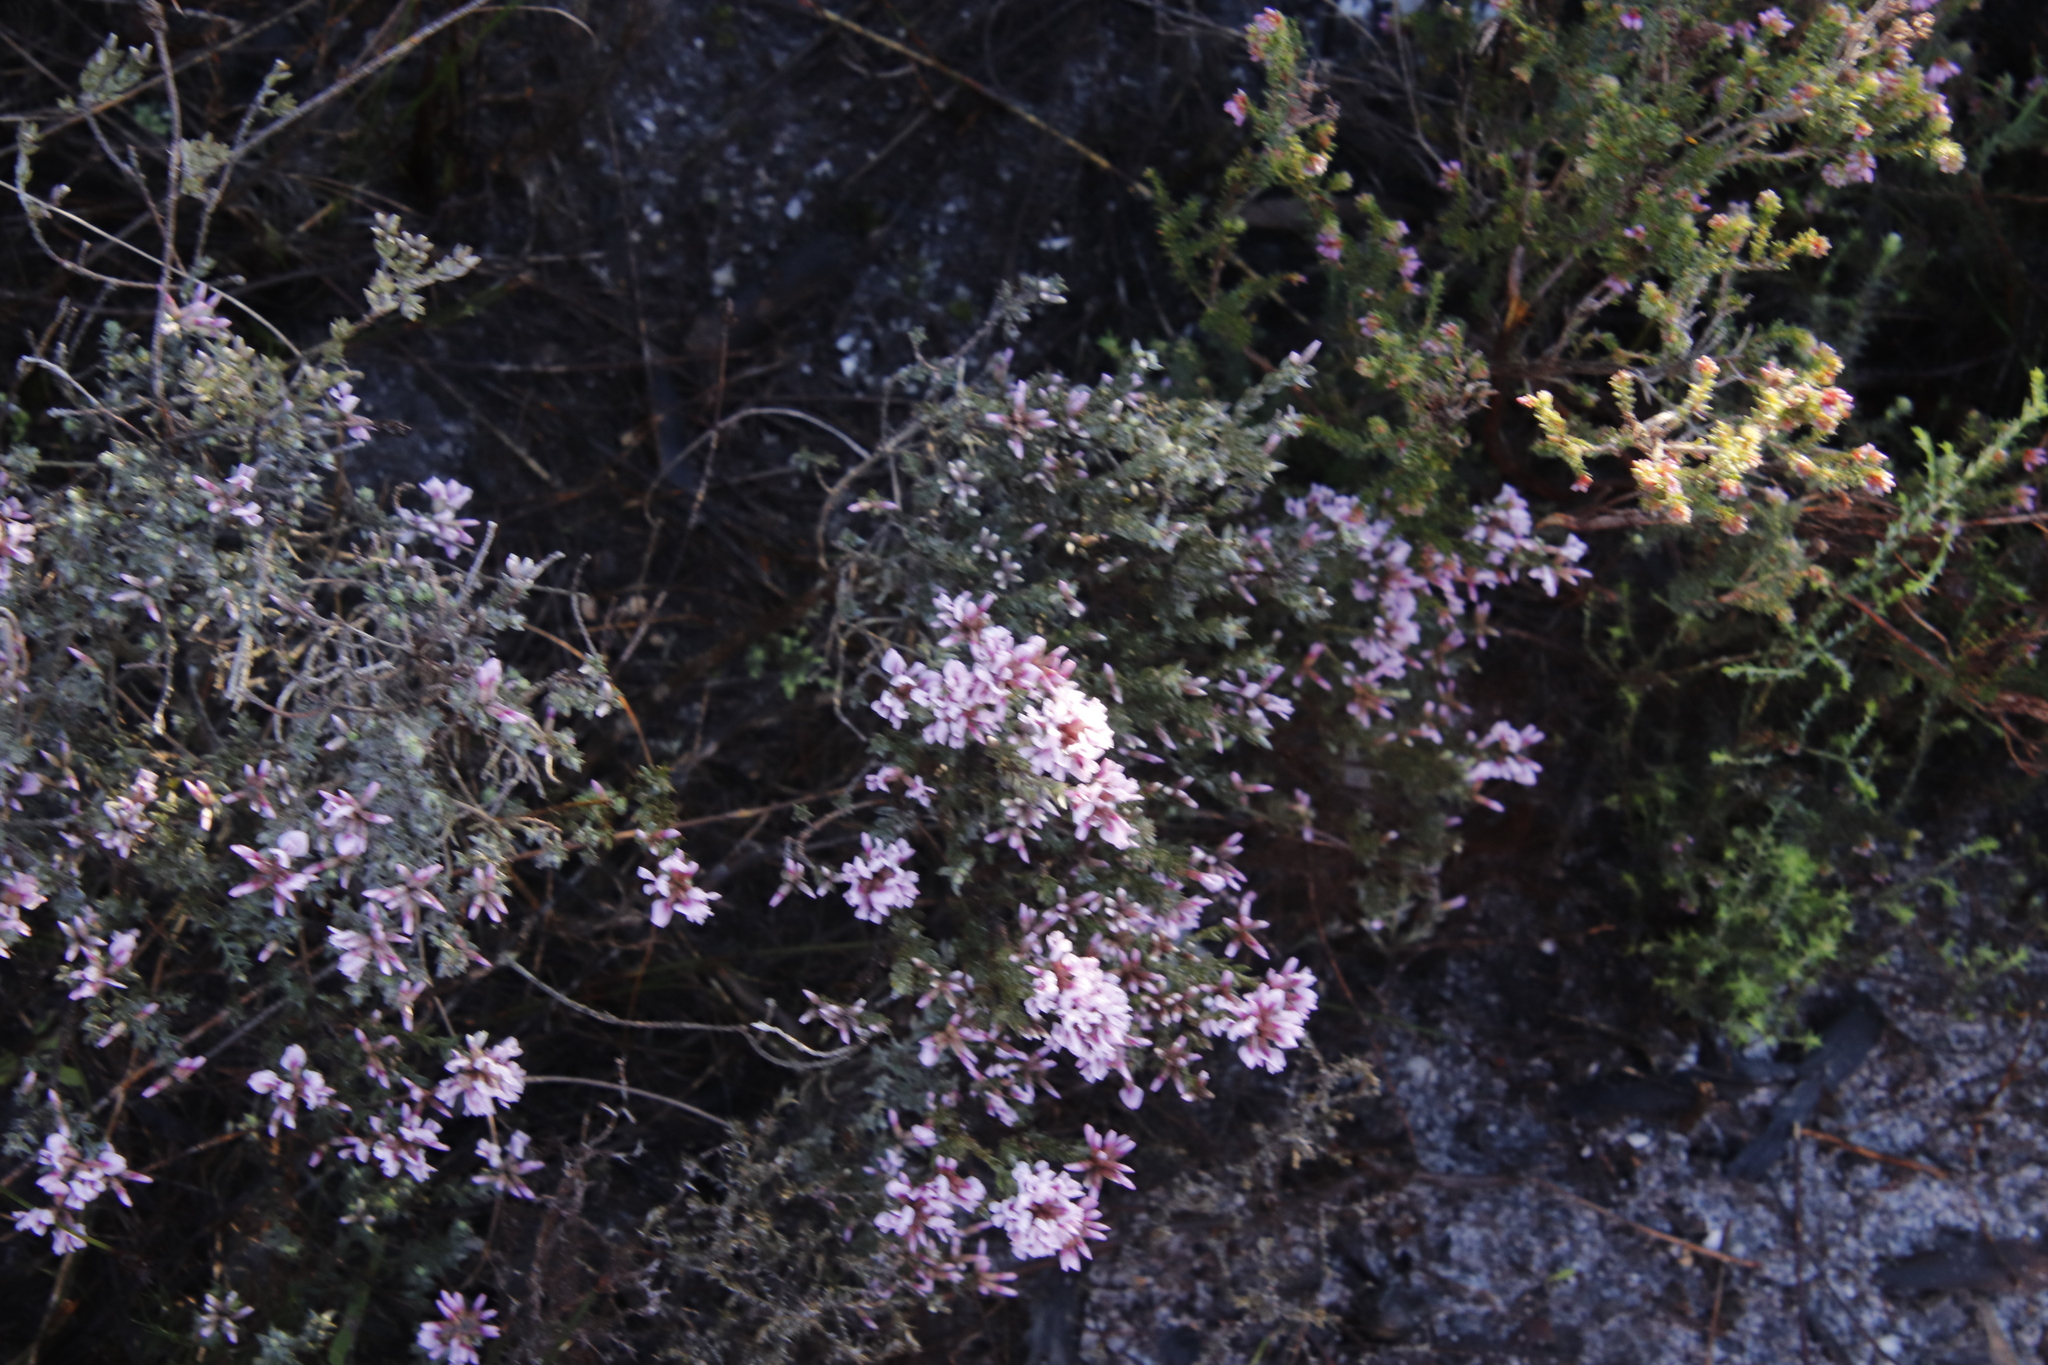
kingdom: Plantae
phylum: Tracheophyta
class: Magnoliopsida
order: Fabales
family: Fabaceae
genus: Amphithalea
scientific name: Amphithalea ericifolia
